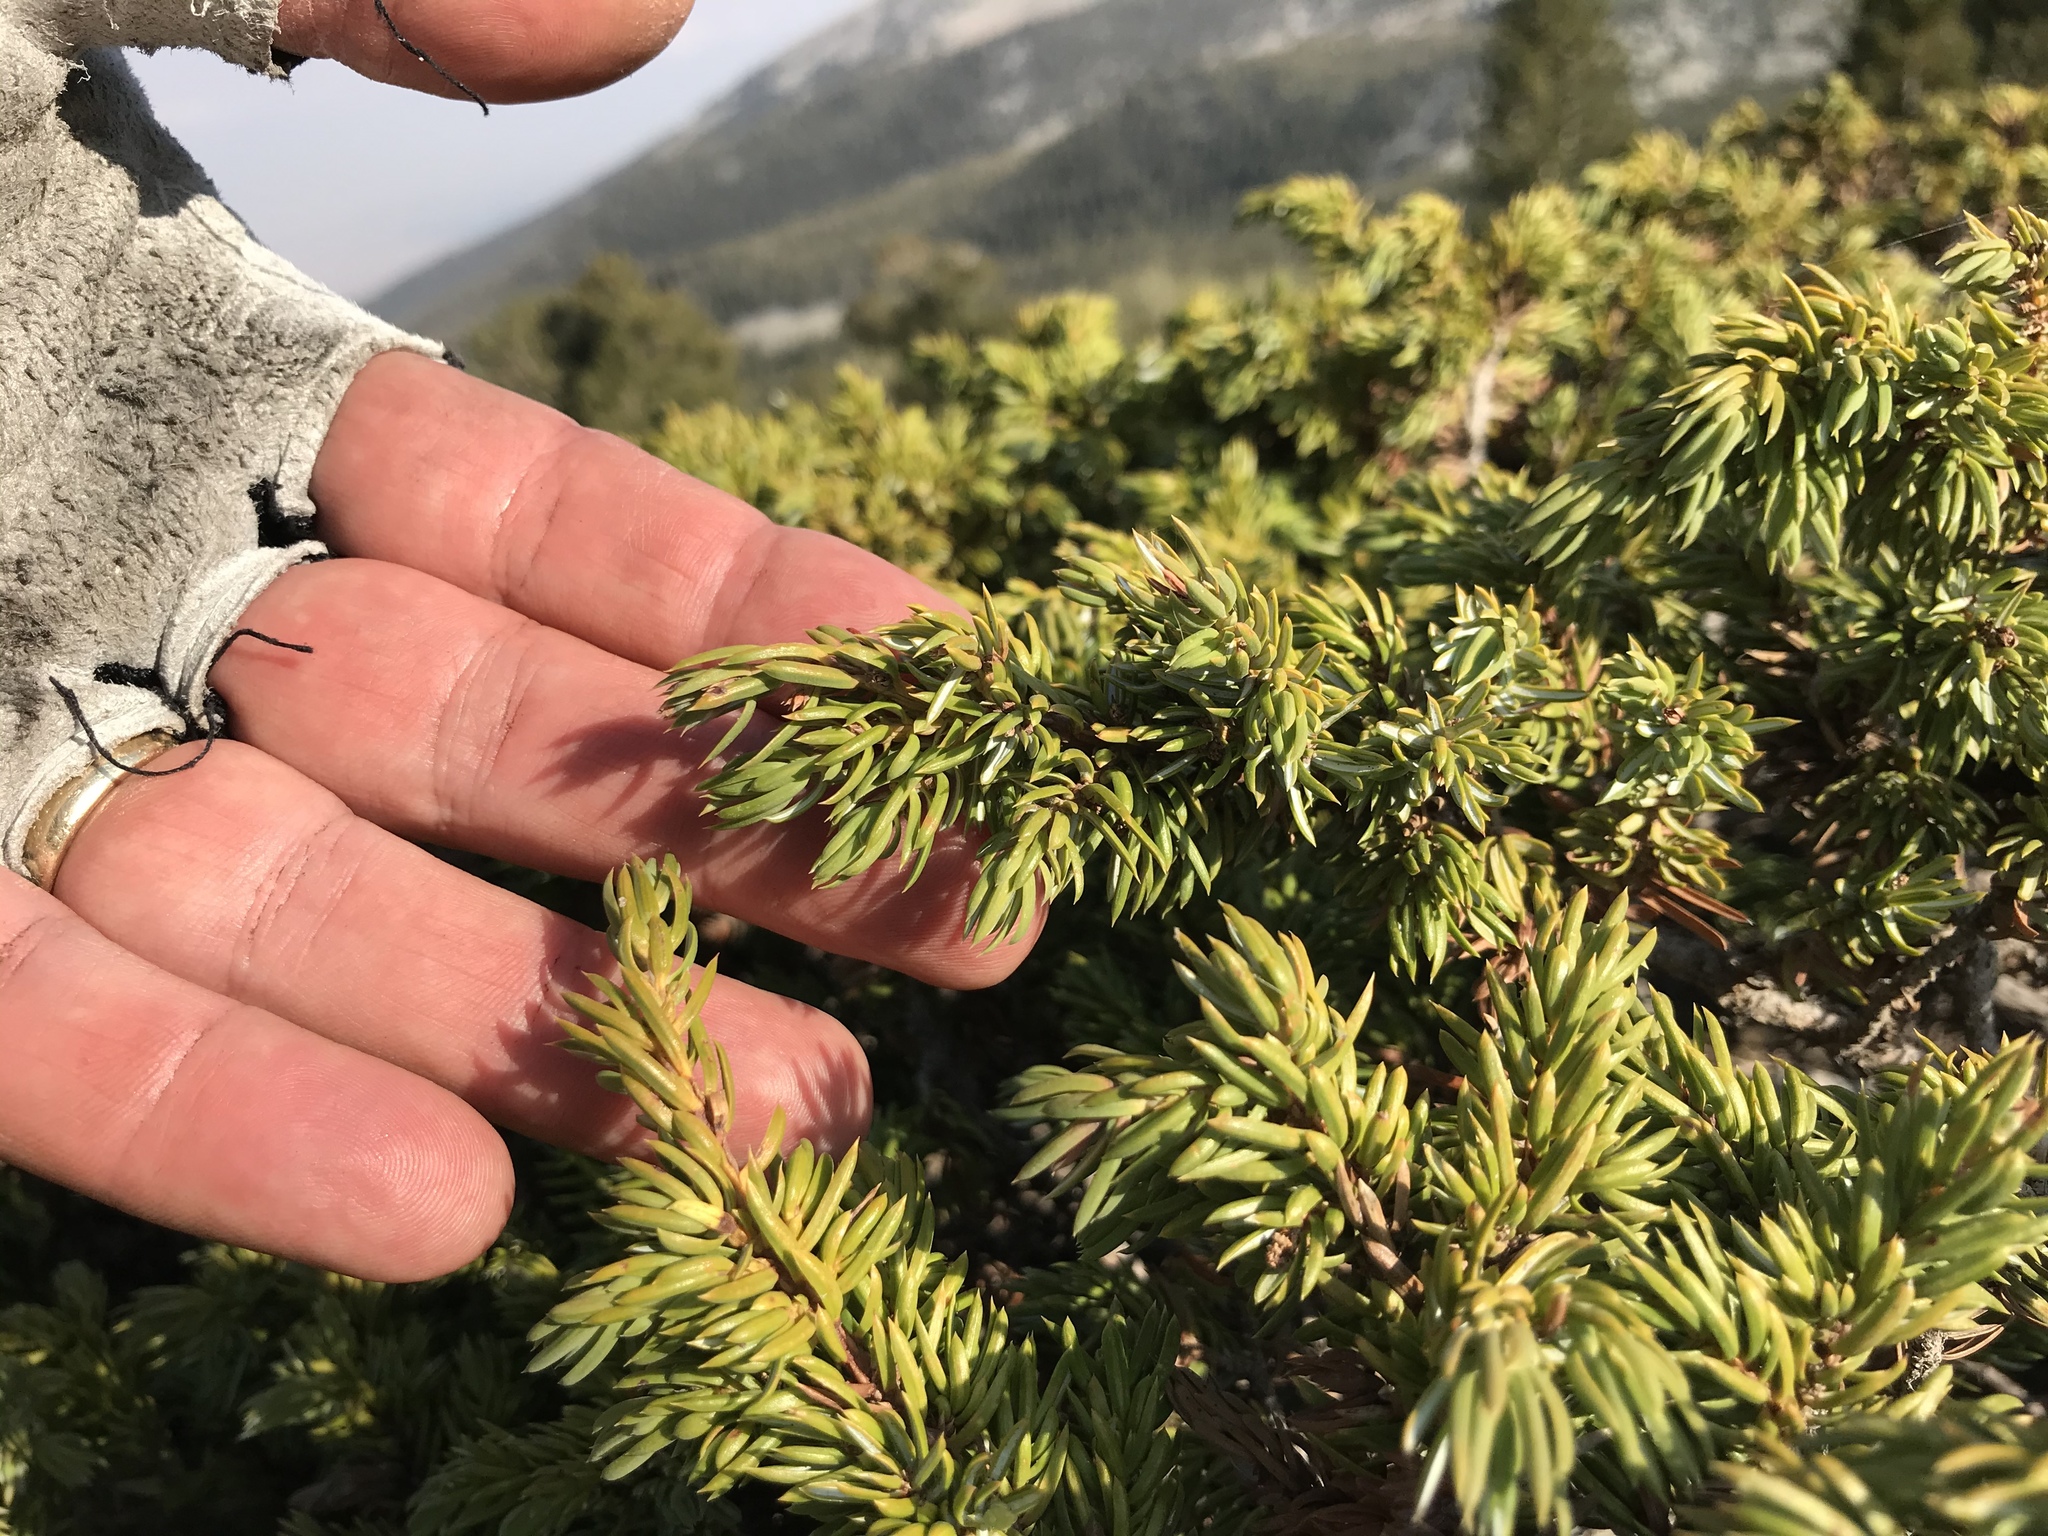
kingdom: Plantae
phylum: Tracheophyta
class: Pinopsida
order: Pinales
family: Cupressaceae
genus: Juniperus
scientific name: Juniperus communis
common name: Common juniper
